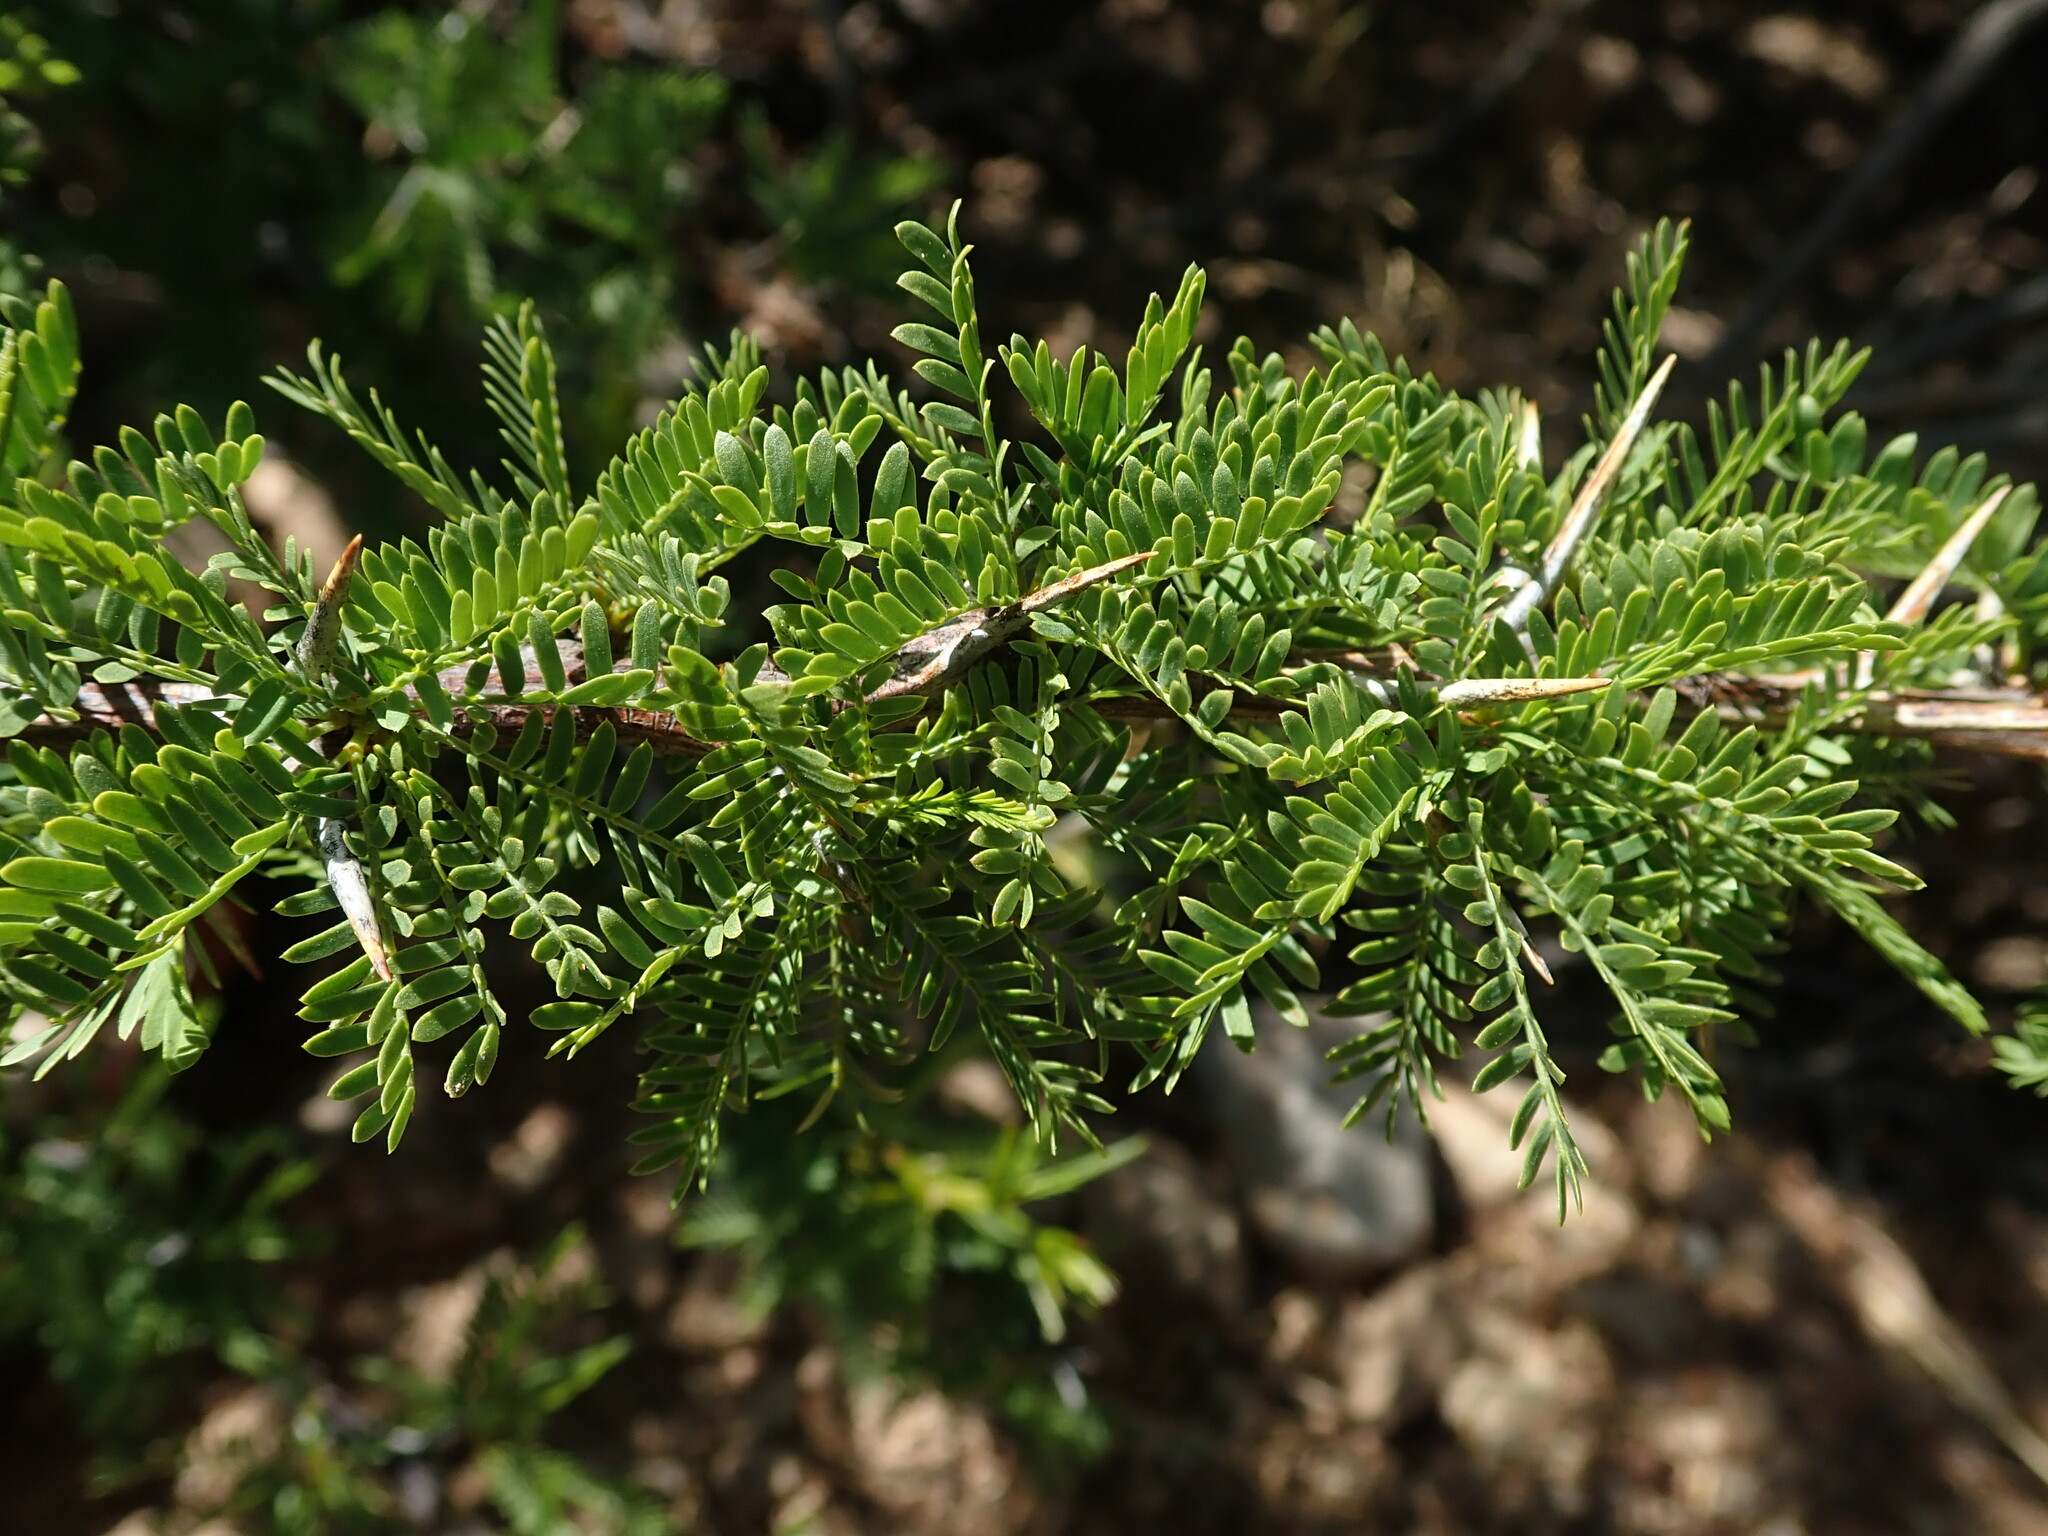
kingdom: Plantae
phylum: Tracheophyta
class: Magnoliopsida
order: Fabales
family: Fabaceae
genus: Prosopis
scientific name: Prosopis ferox
